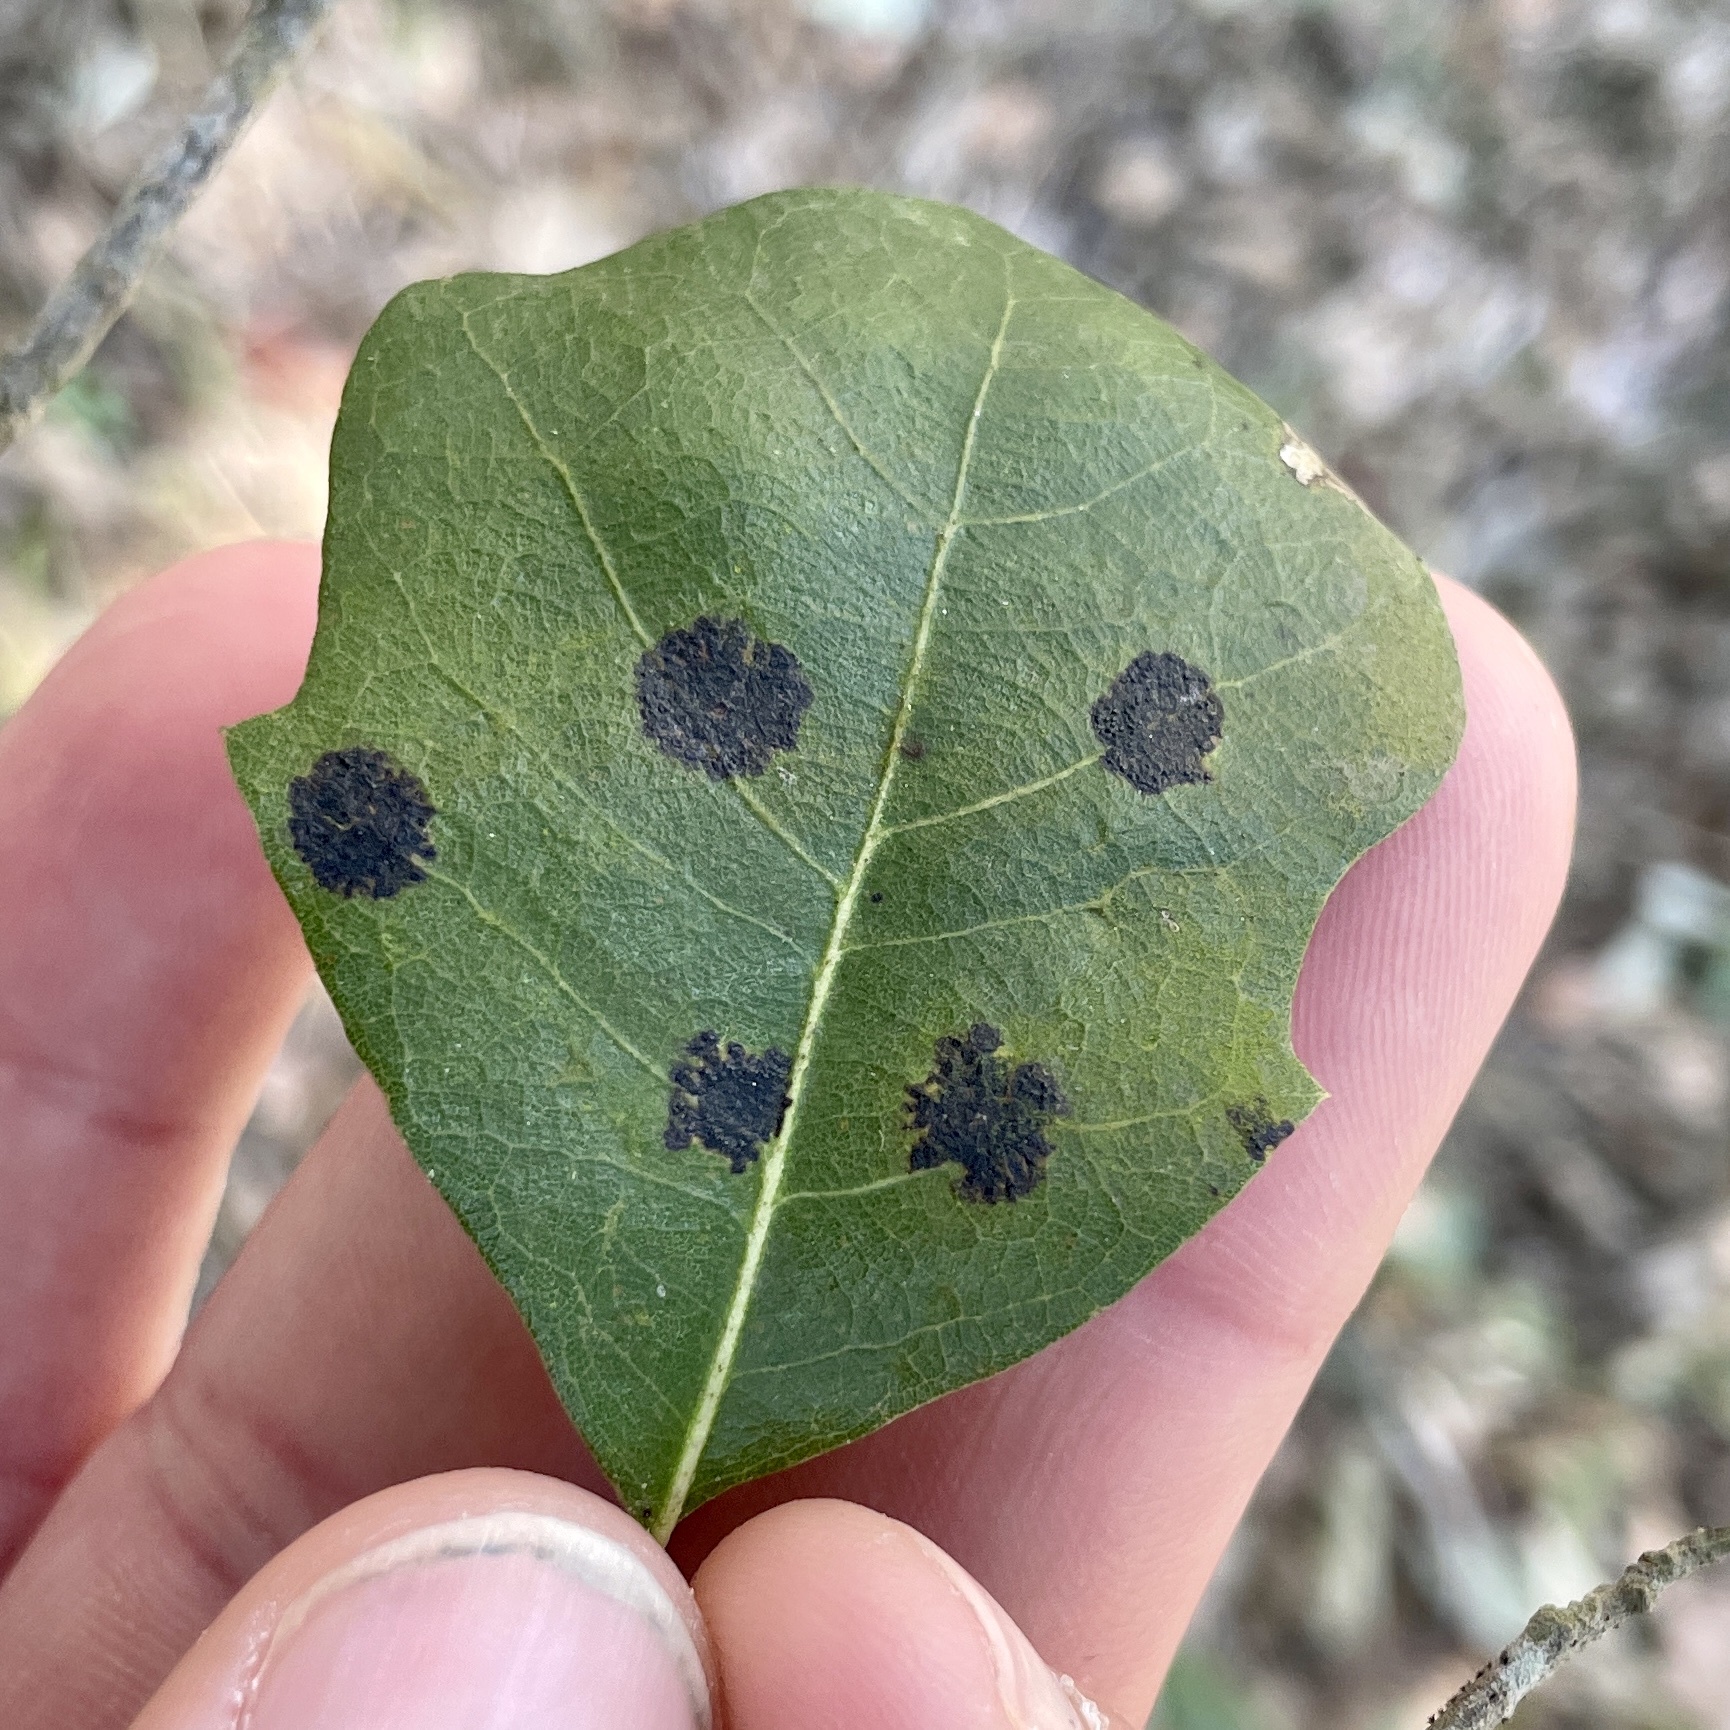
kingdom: Fungi
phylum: Ascomycota
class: Sordariomycetes
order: Phyllachorales
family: Phyllachoraceae
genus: Trabutia
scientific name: Trabutia quercina
